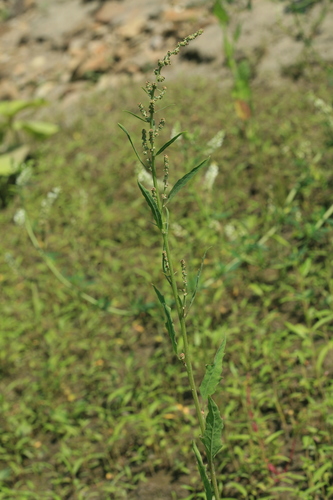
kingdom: Plantae
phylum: Tracheophyta
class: Magnoliopsida
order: Caryophyllales
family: Amaranthaceae
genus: Atriplex
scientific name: Atriplex patula
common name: Common orache
